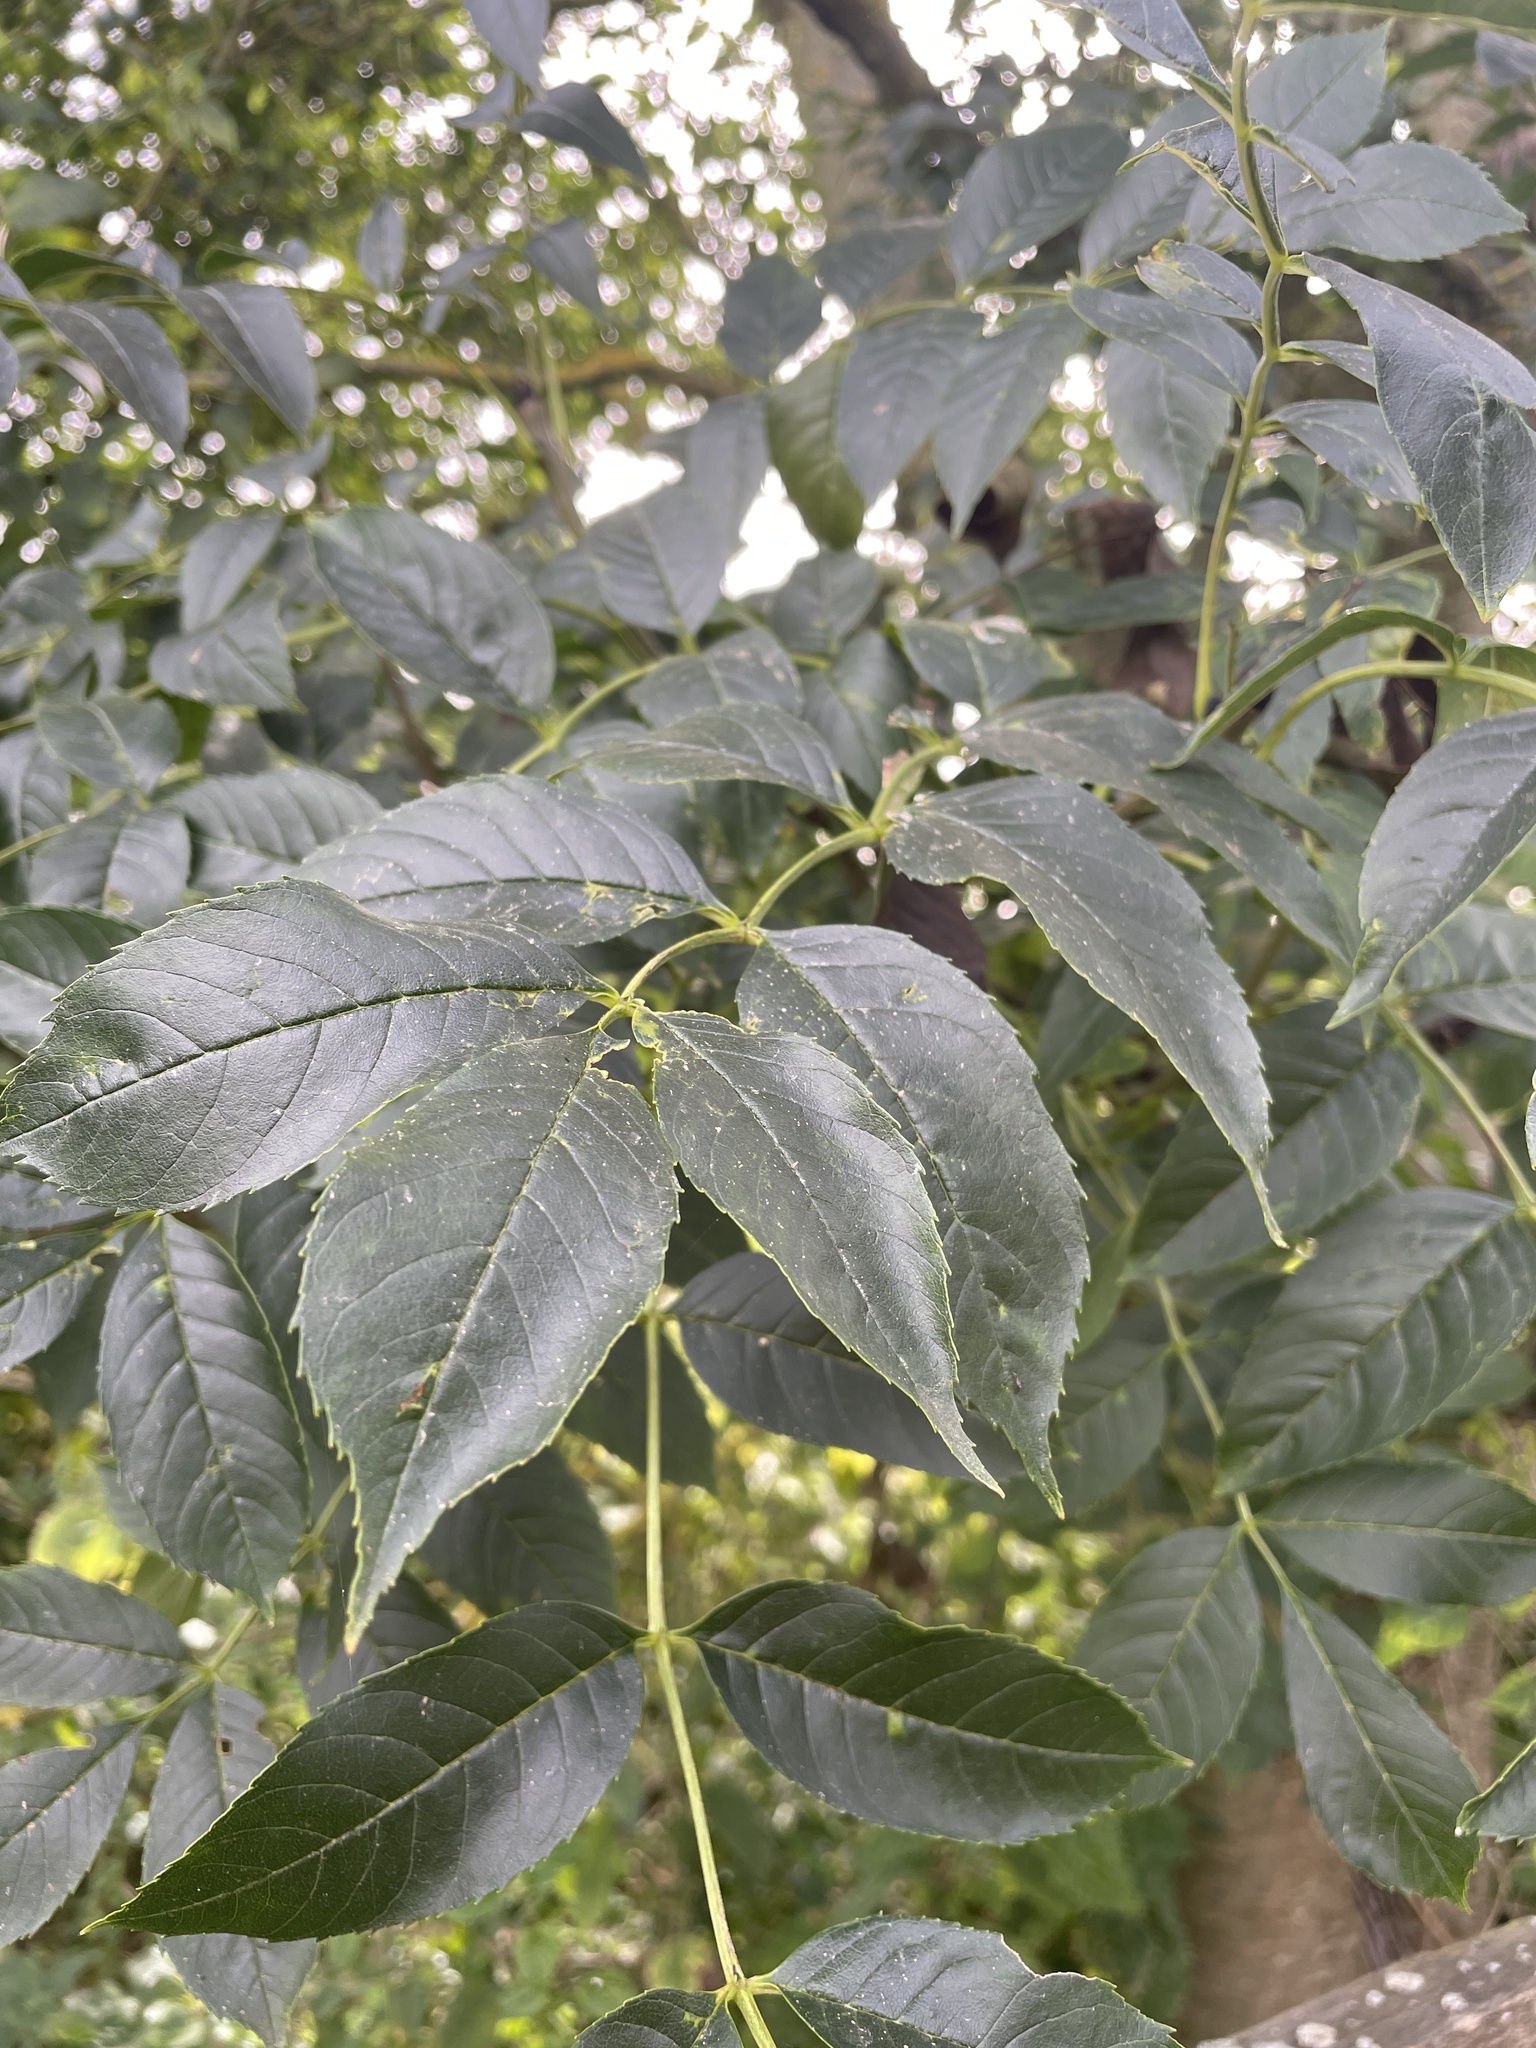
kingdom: Plantae
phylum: Tracheophyta
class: Magnoliopsida
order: Lamiales
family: Oleaceae
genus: Fraxinus
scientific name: Fraxinus excelsior
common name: European ash
